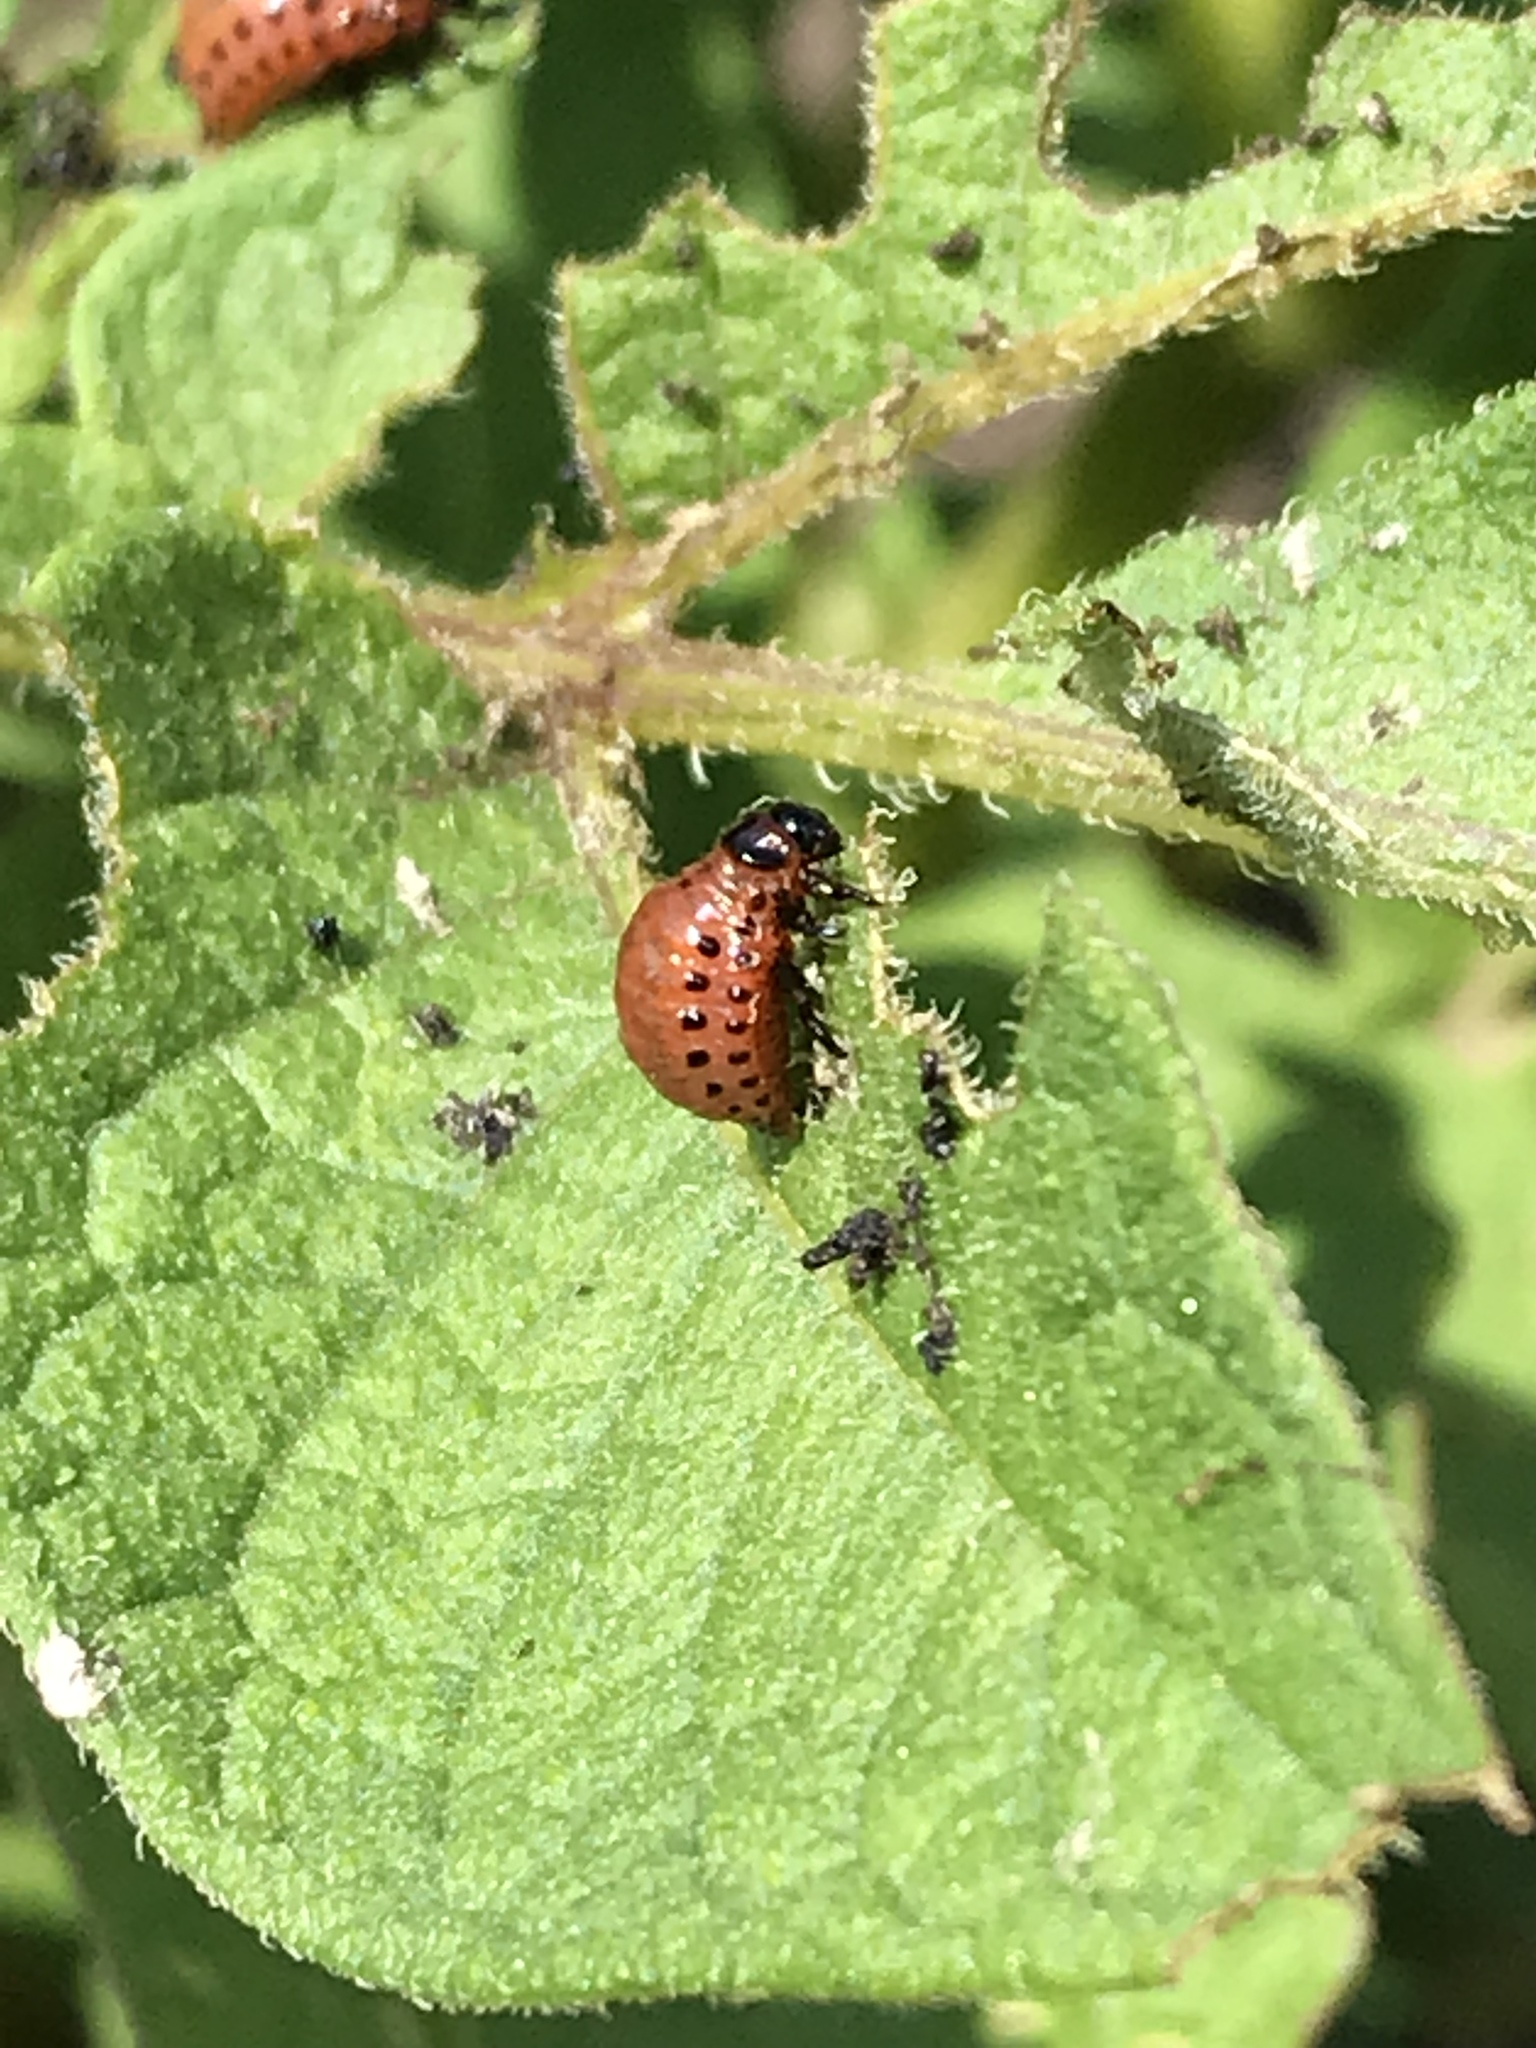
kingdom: Animalia
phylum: Arthropoda
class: Insecta
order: Coleoptera
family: Chrysomelidae
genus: Leptinotarsa
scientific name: Leptinotarsa decemlineata
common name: Colorado potato beetle
